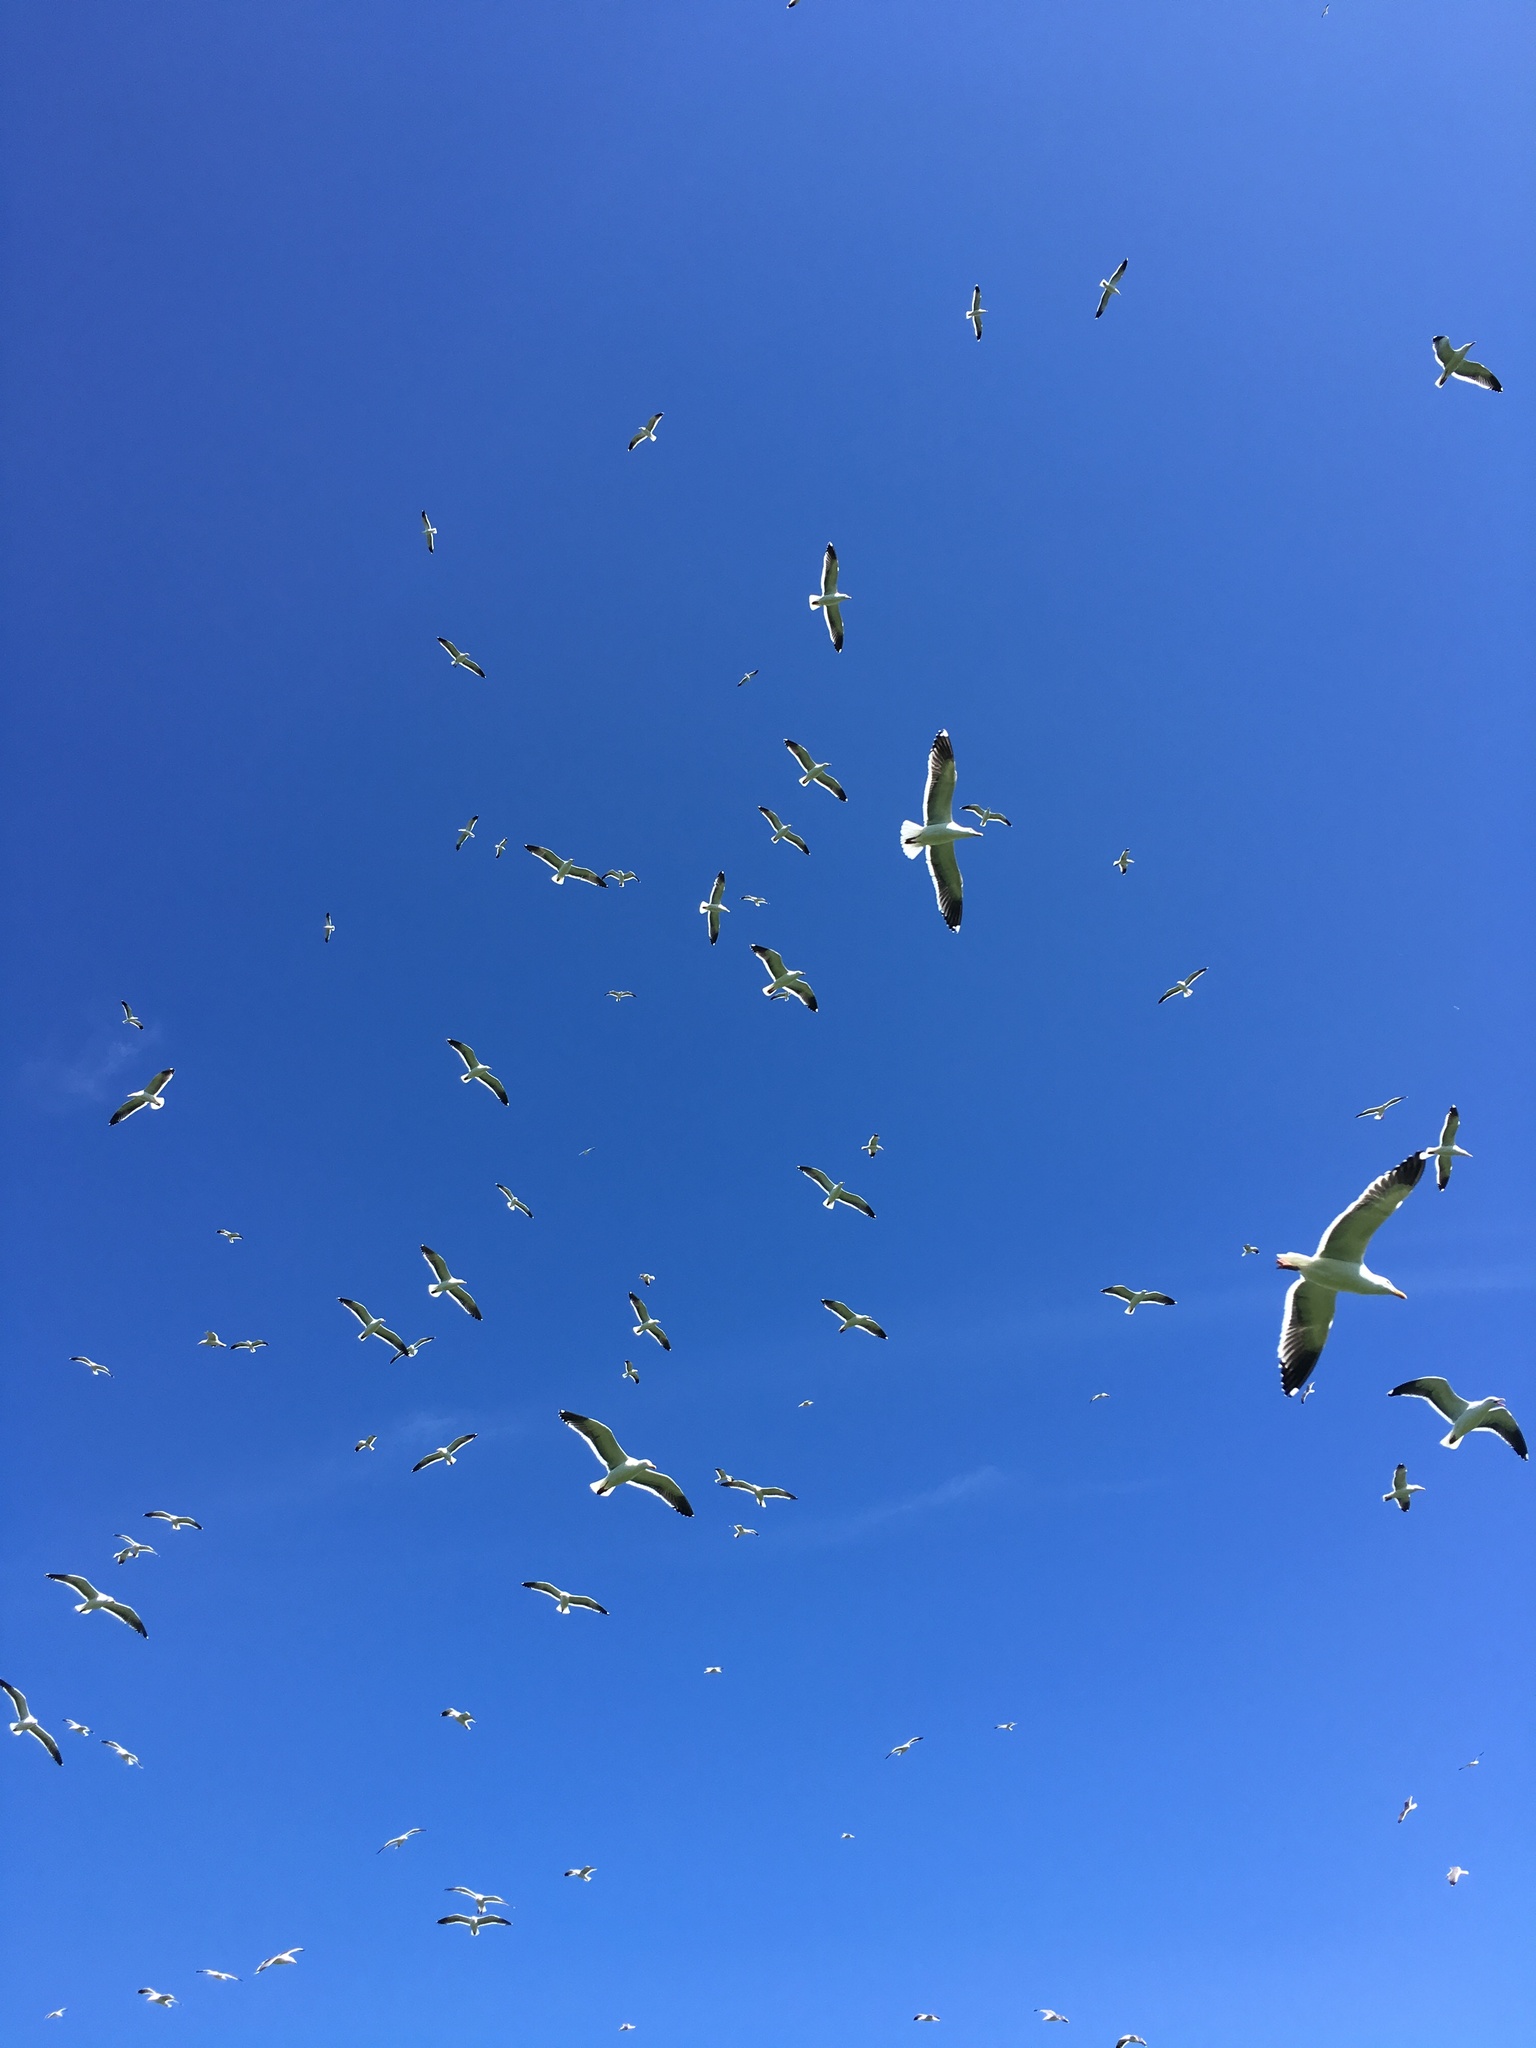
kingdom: Animalia
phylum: Chordata
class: Aves
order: Charadriiformes
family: Laridae
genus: Larus
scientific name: Larus occidentalis
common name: Western gull
